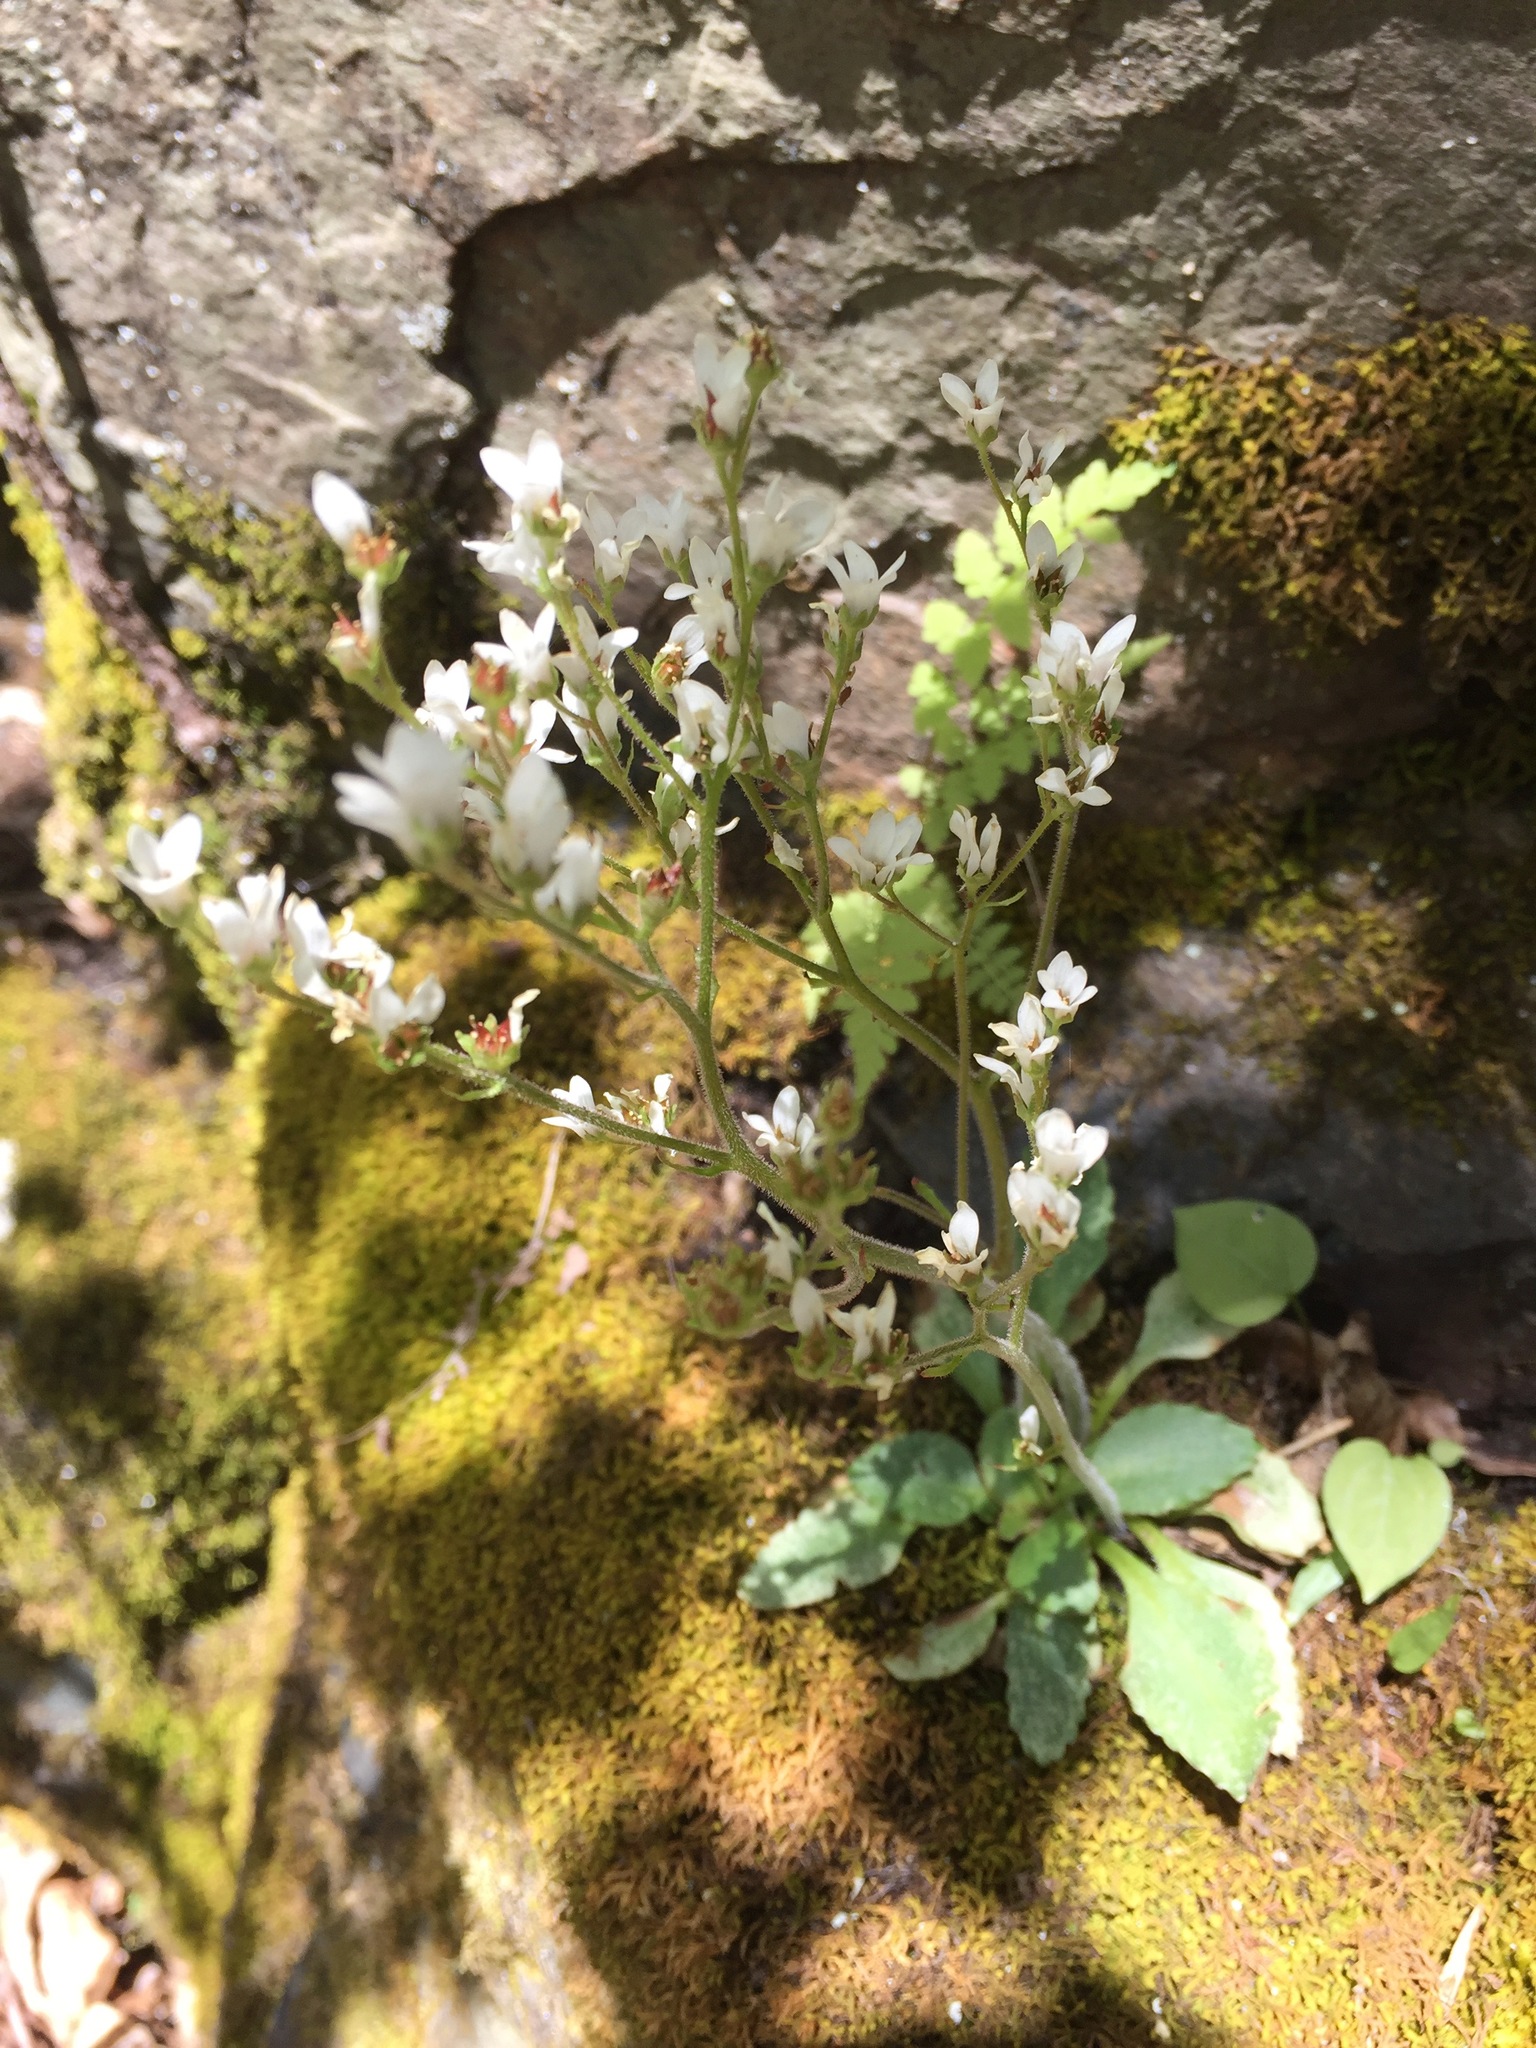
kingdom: Plantae
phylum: Tracheophyta
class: Magnoliopsida
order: Saxifragales
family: Saxifragaceae
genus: Micranthes
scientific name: Micranthes virginiensis
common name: Early saxifrage
